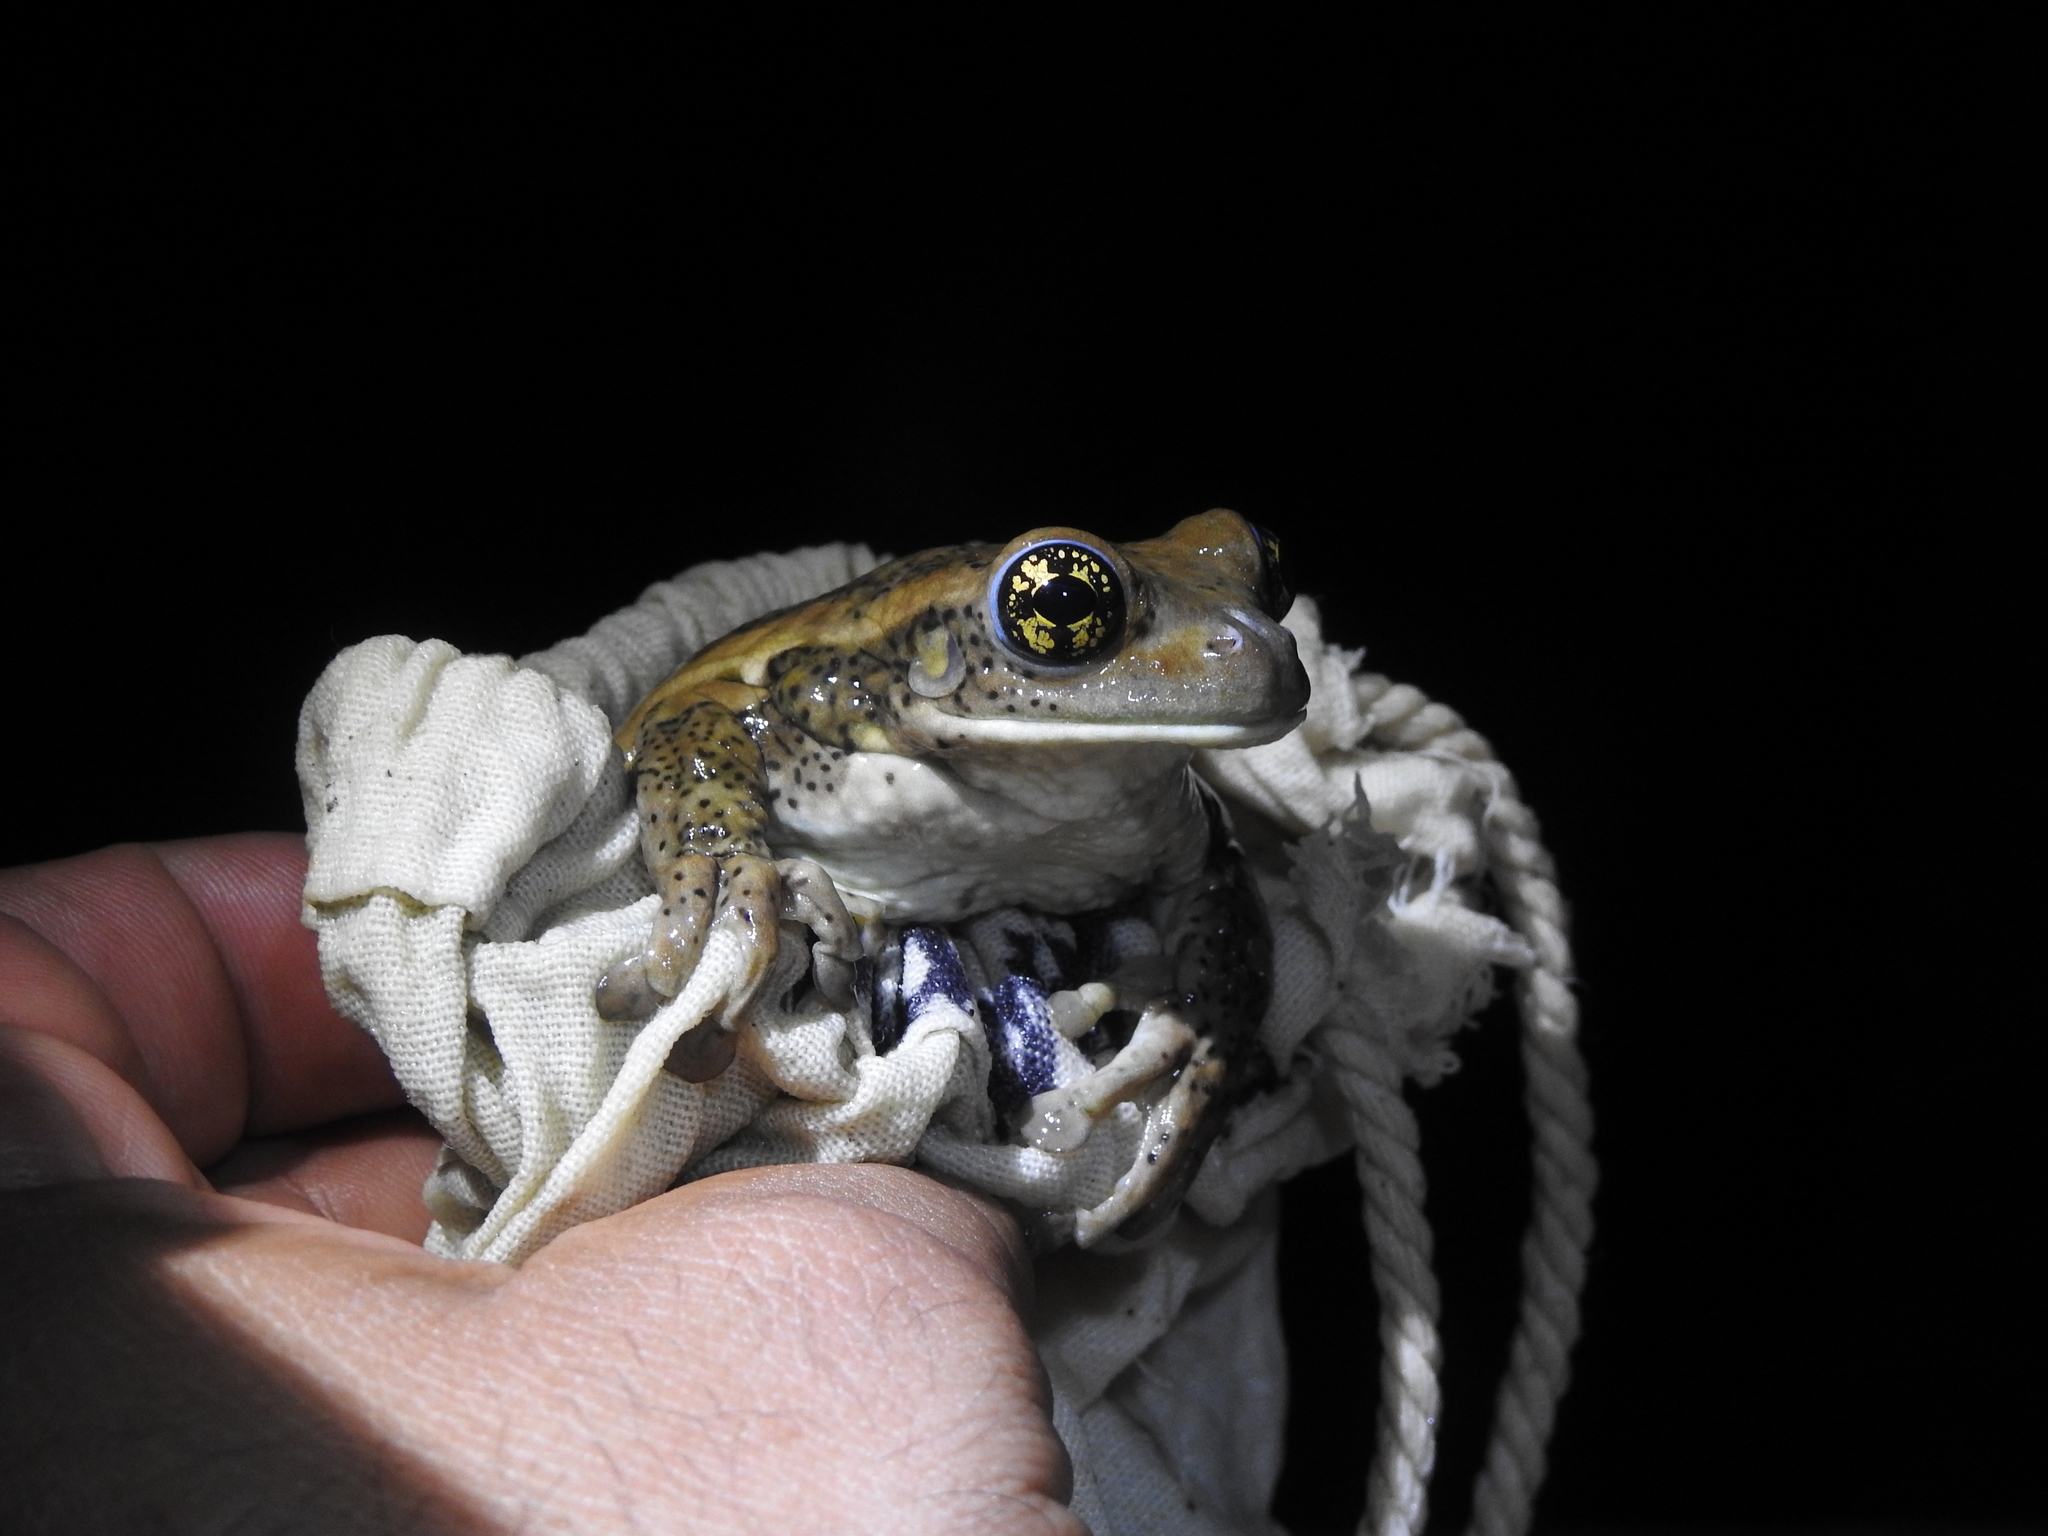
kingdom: Animalia
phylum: Chordata
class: Amphibia
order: Anura
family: Hylidae
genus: Trachycephalus
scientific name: Trachycephalus vermiculatus
